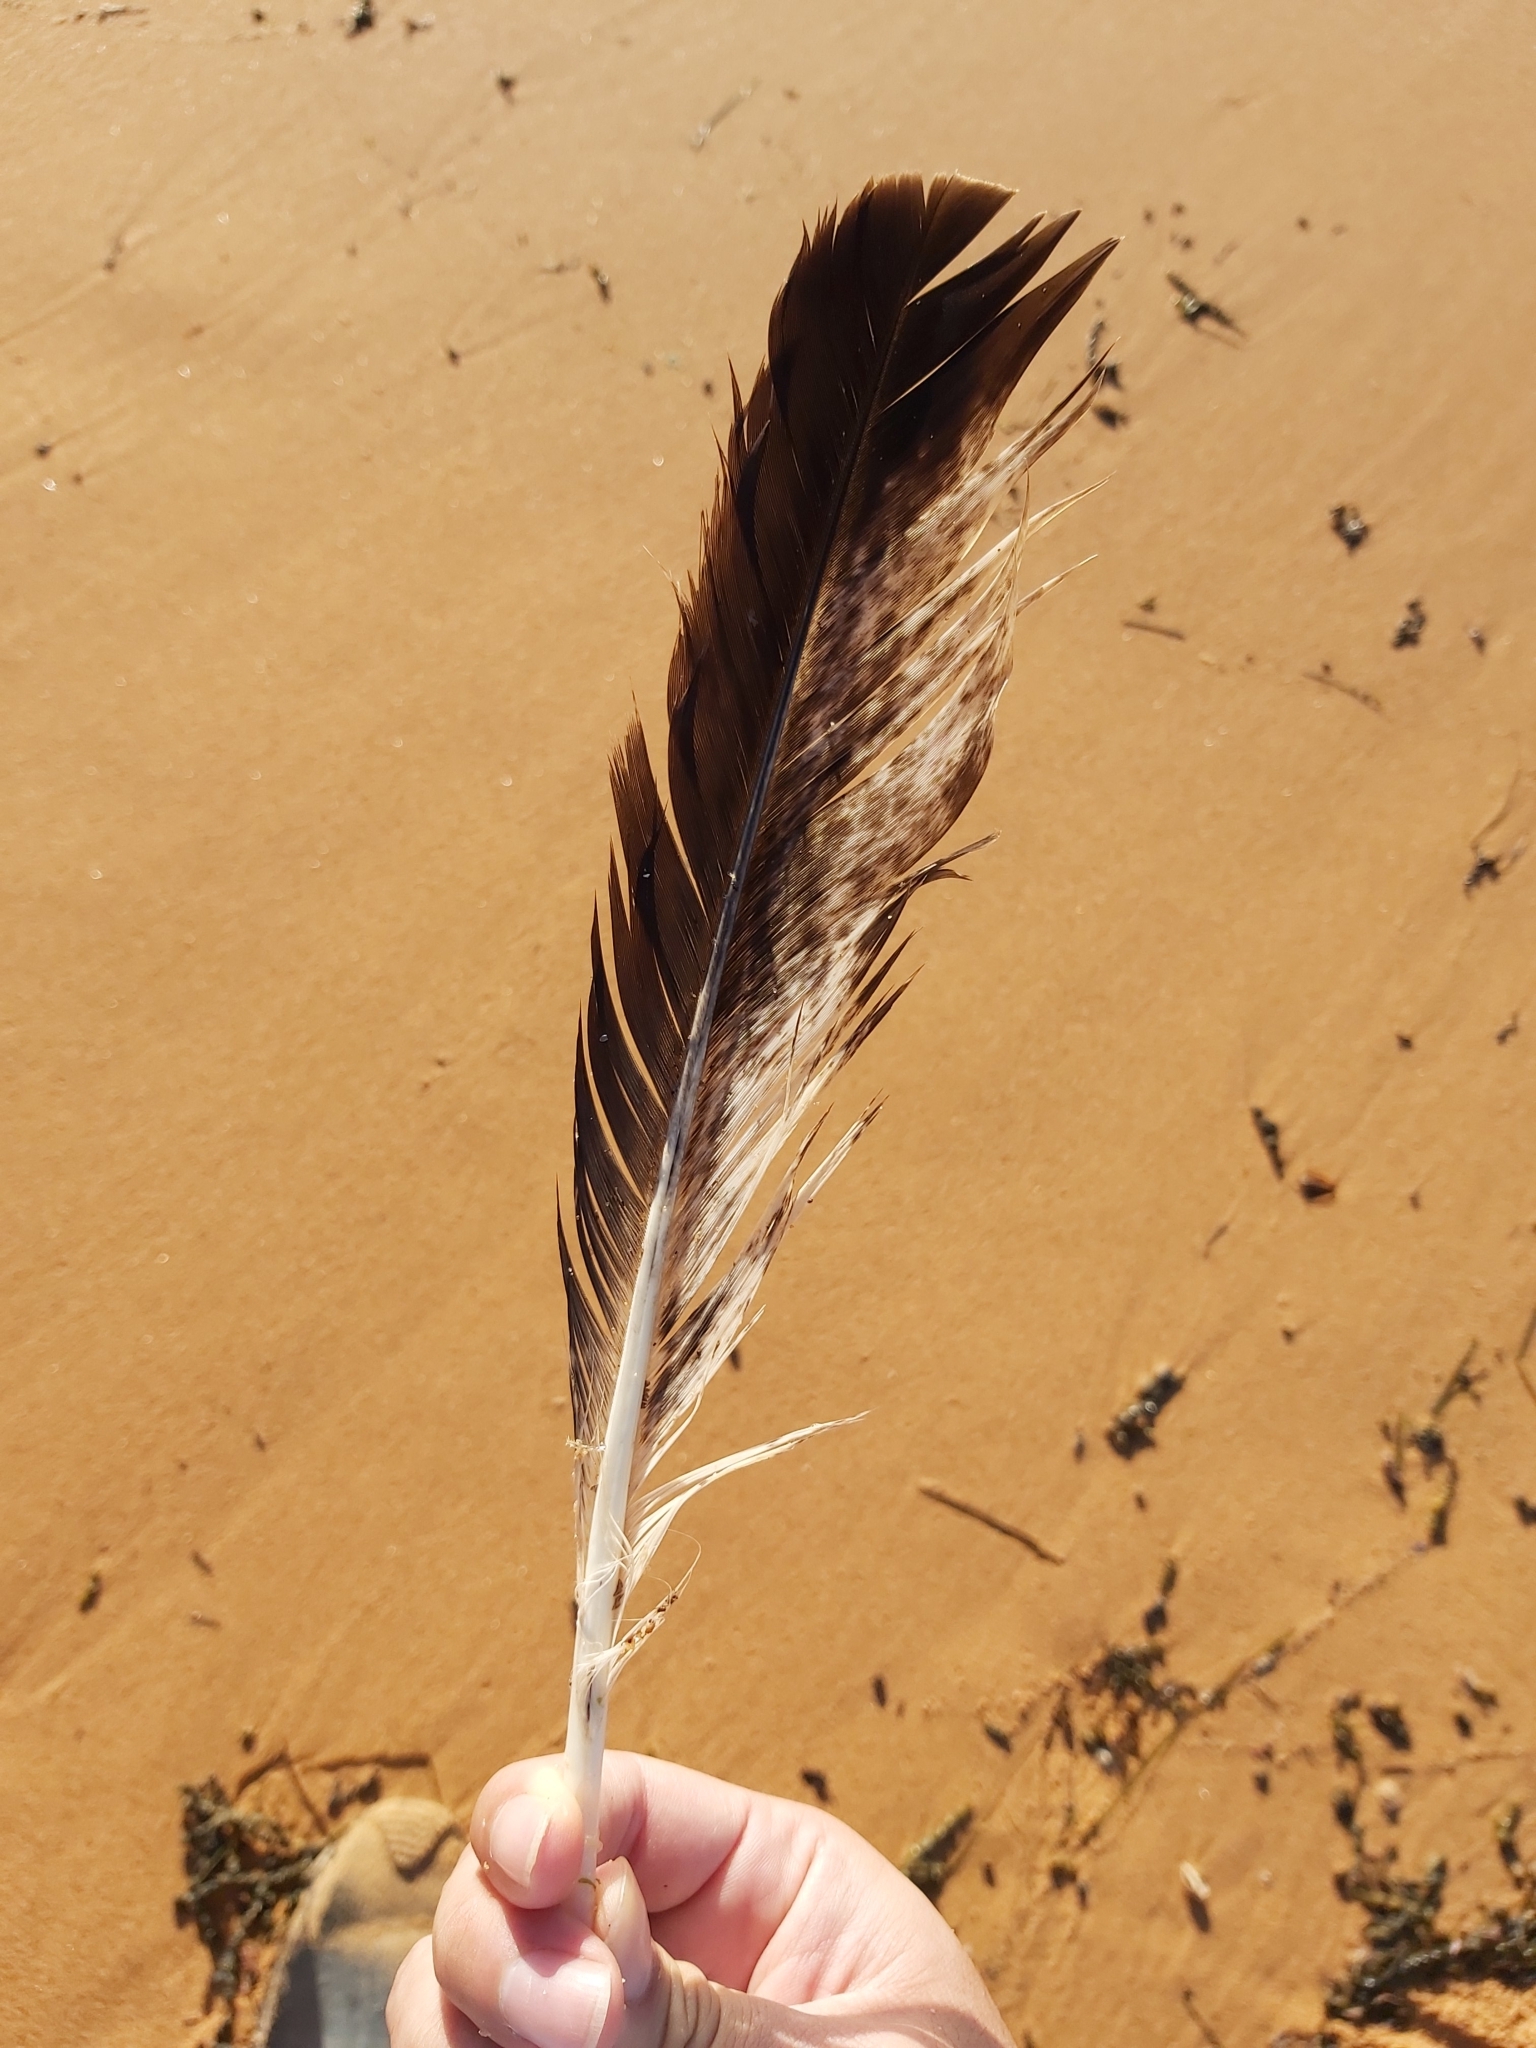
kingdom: Animalia
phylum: Chordata
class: Aves
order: Accipitriformes
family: Accipitridae
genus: Haliaeetus
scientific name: Haliaeetus leucogaster
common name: White-bellied sea eagle
